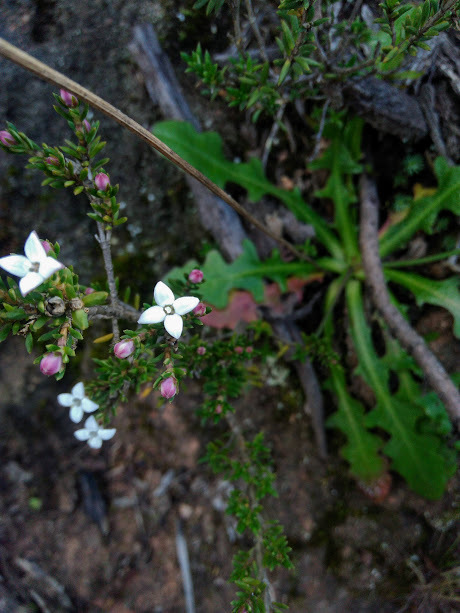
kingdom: Plantae
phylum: Tracheophyta
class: Magnoliopsida
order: Gentianales
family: Rubiaceae
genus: Arcytophyllum
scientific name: Arcytophyllum nitidum
